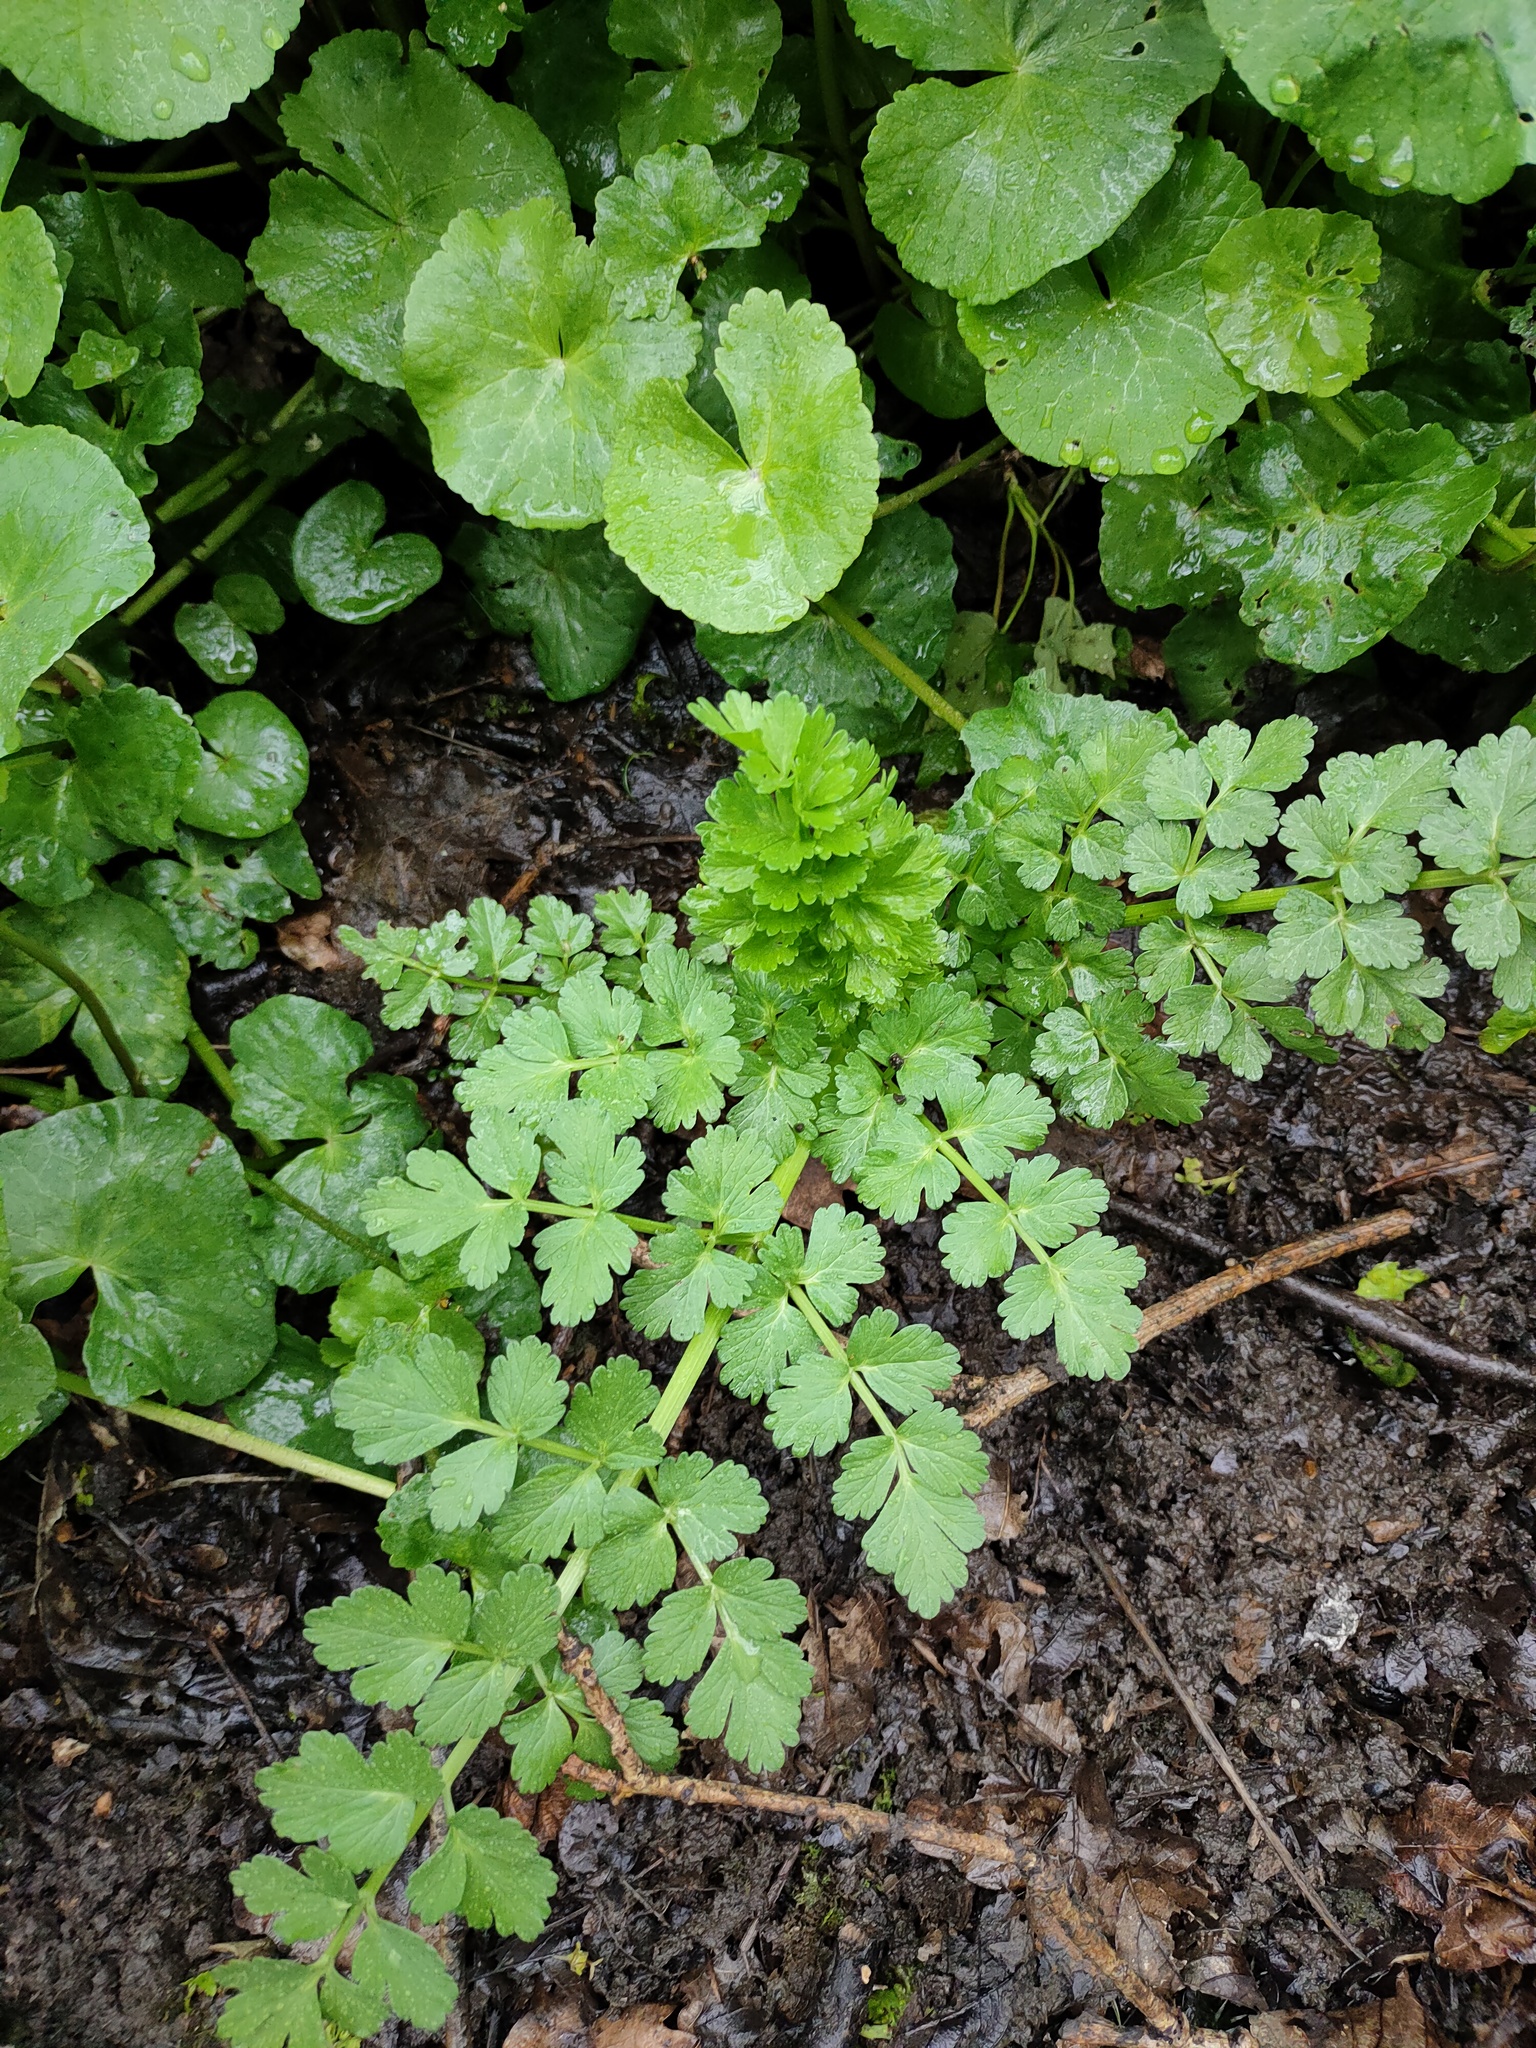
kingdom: Plantae
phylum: Tracheophyta
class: Magnoliopsida
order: Apiales
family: Apiaceae
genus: Oenanthe
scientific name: Oenanthe crocata
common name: Hemlock water-dropwort
